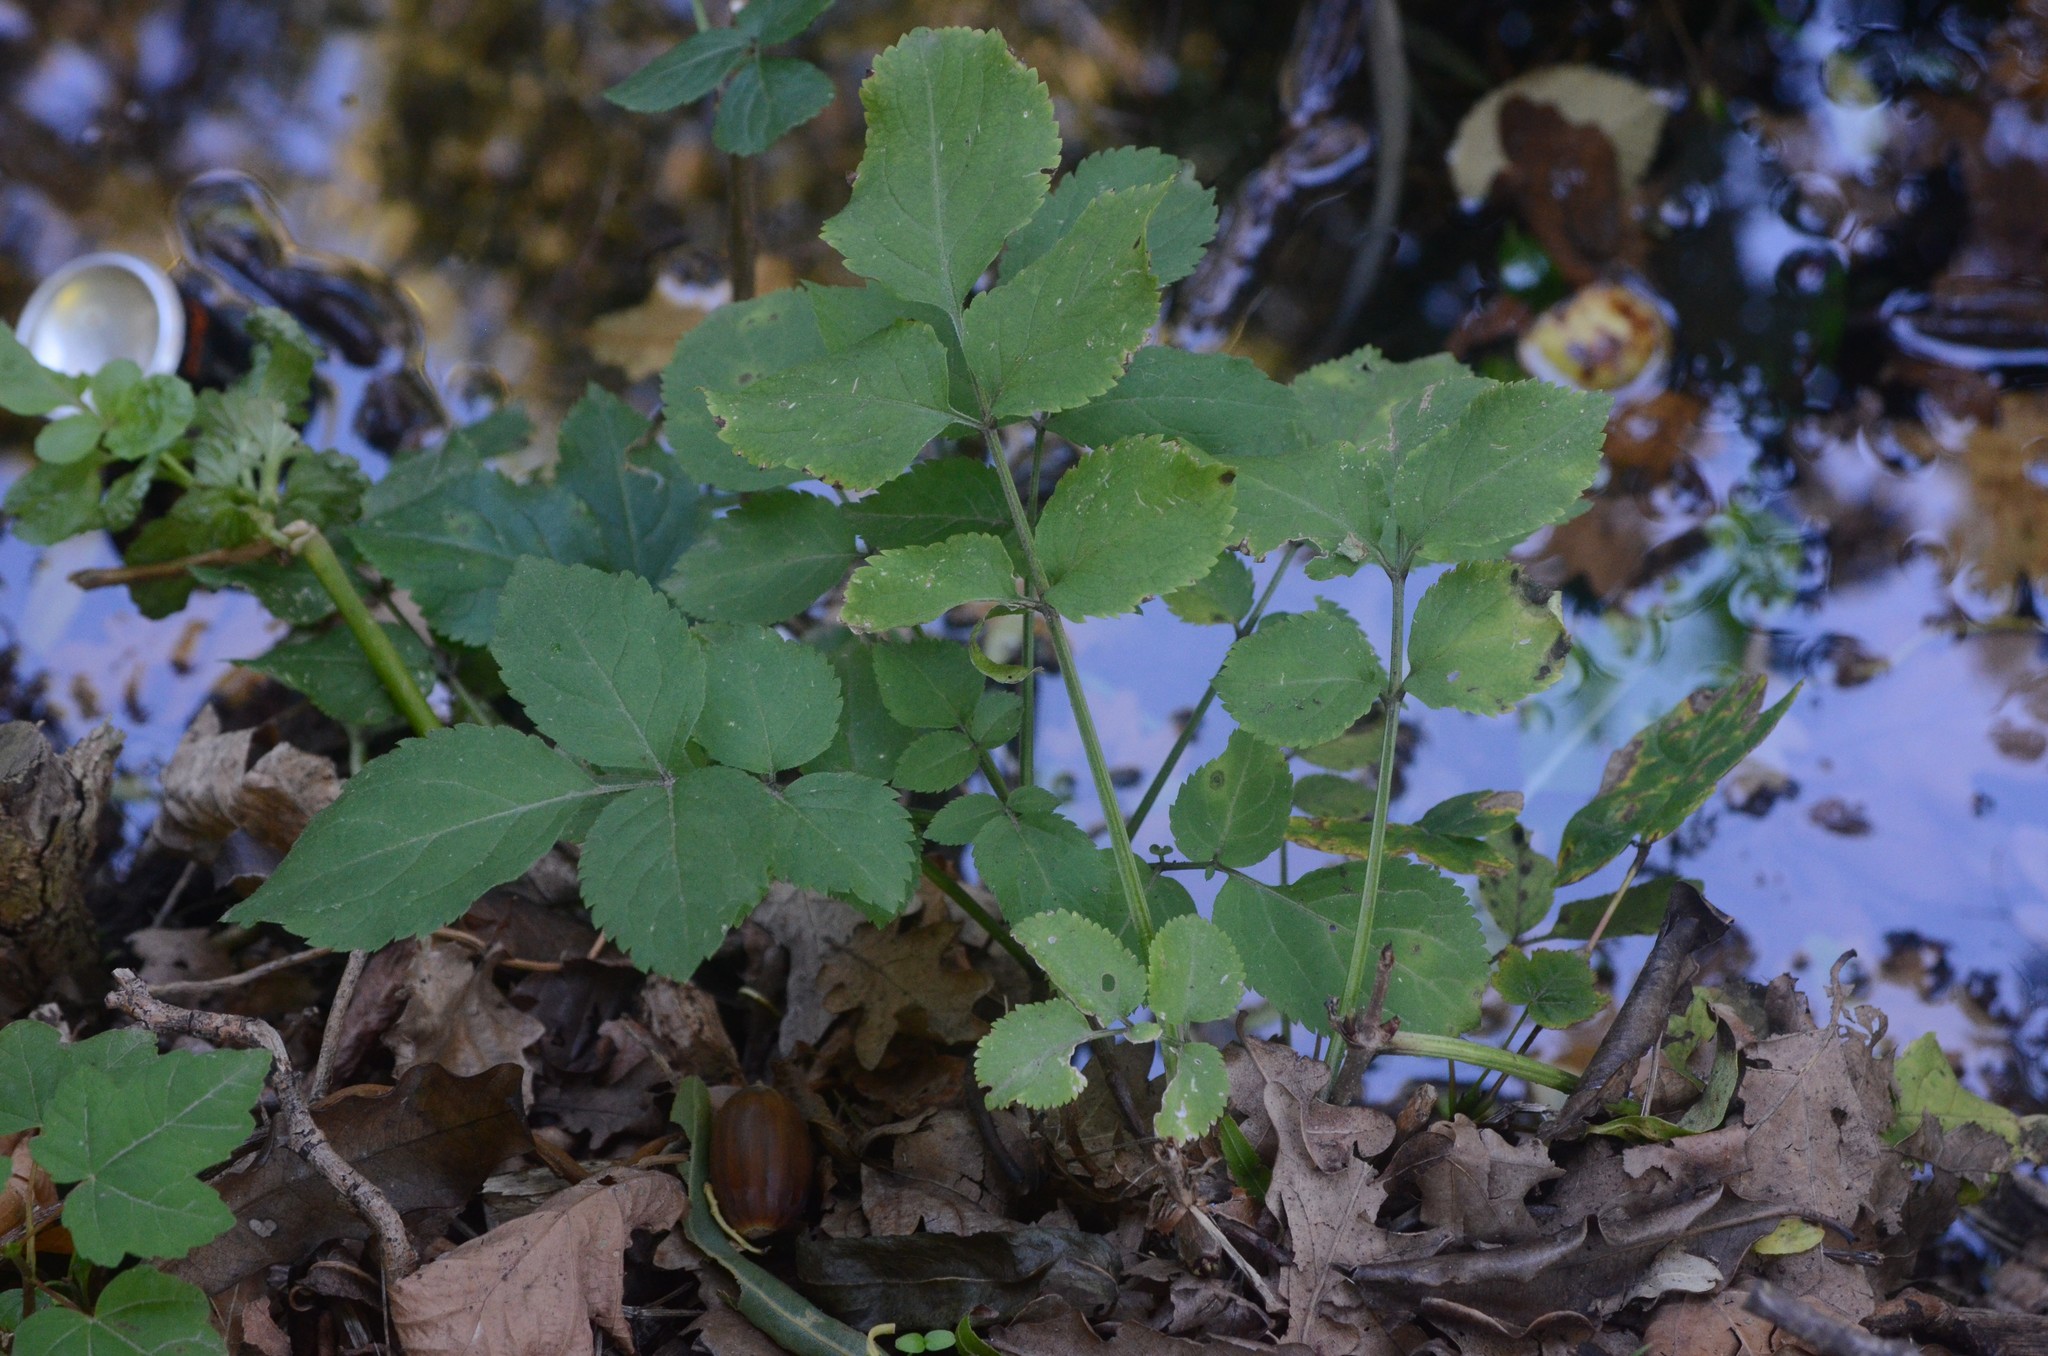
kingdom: Plantae
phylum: Tracheophyta
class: Magnoliopsida
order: Dipsacales
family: Viburnaceae
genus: Sambucus
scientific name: Sambucus nigra
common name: Elder
